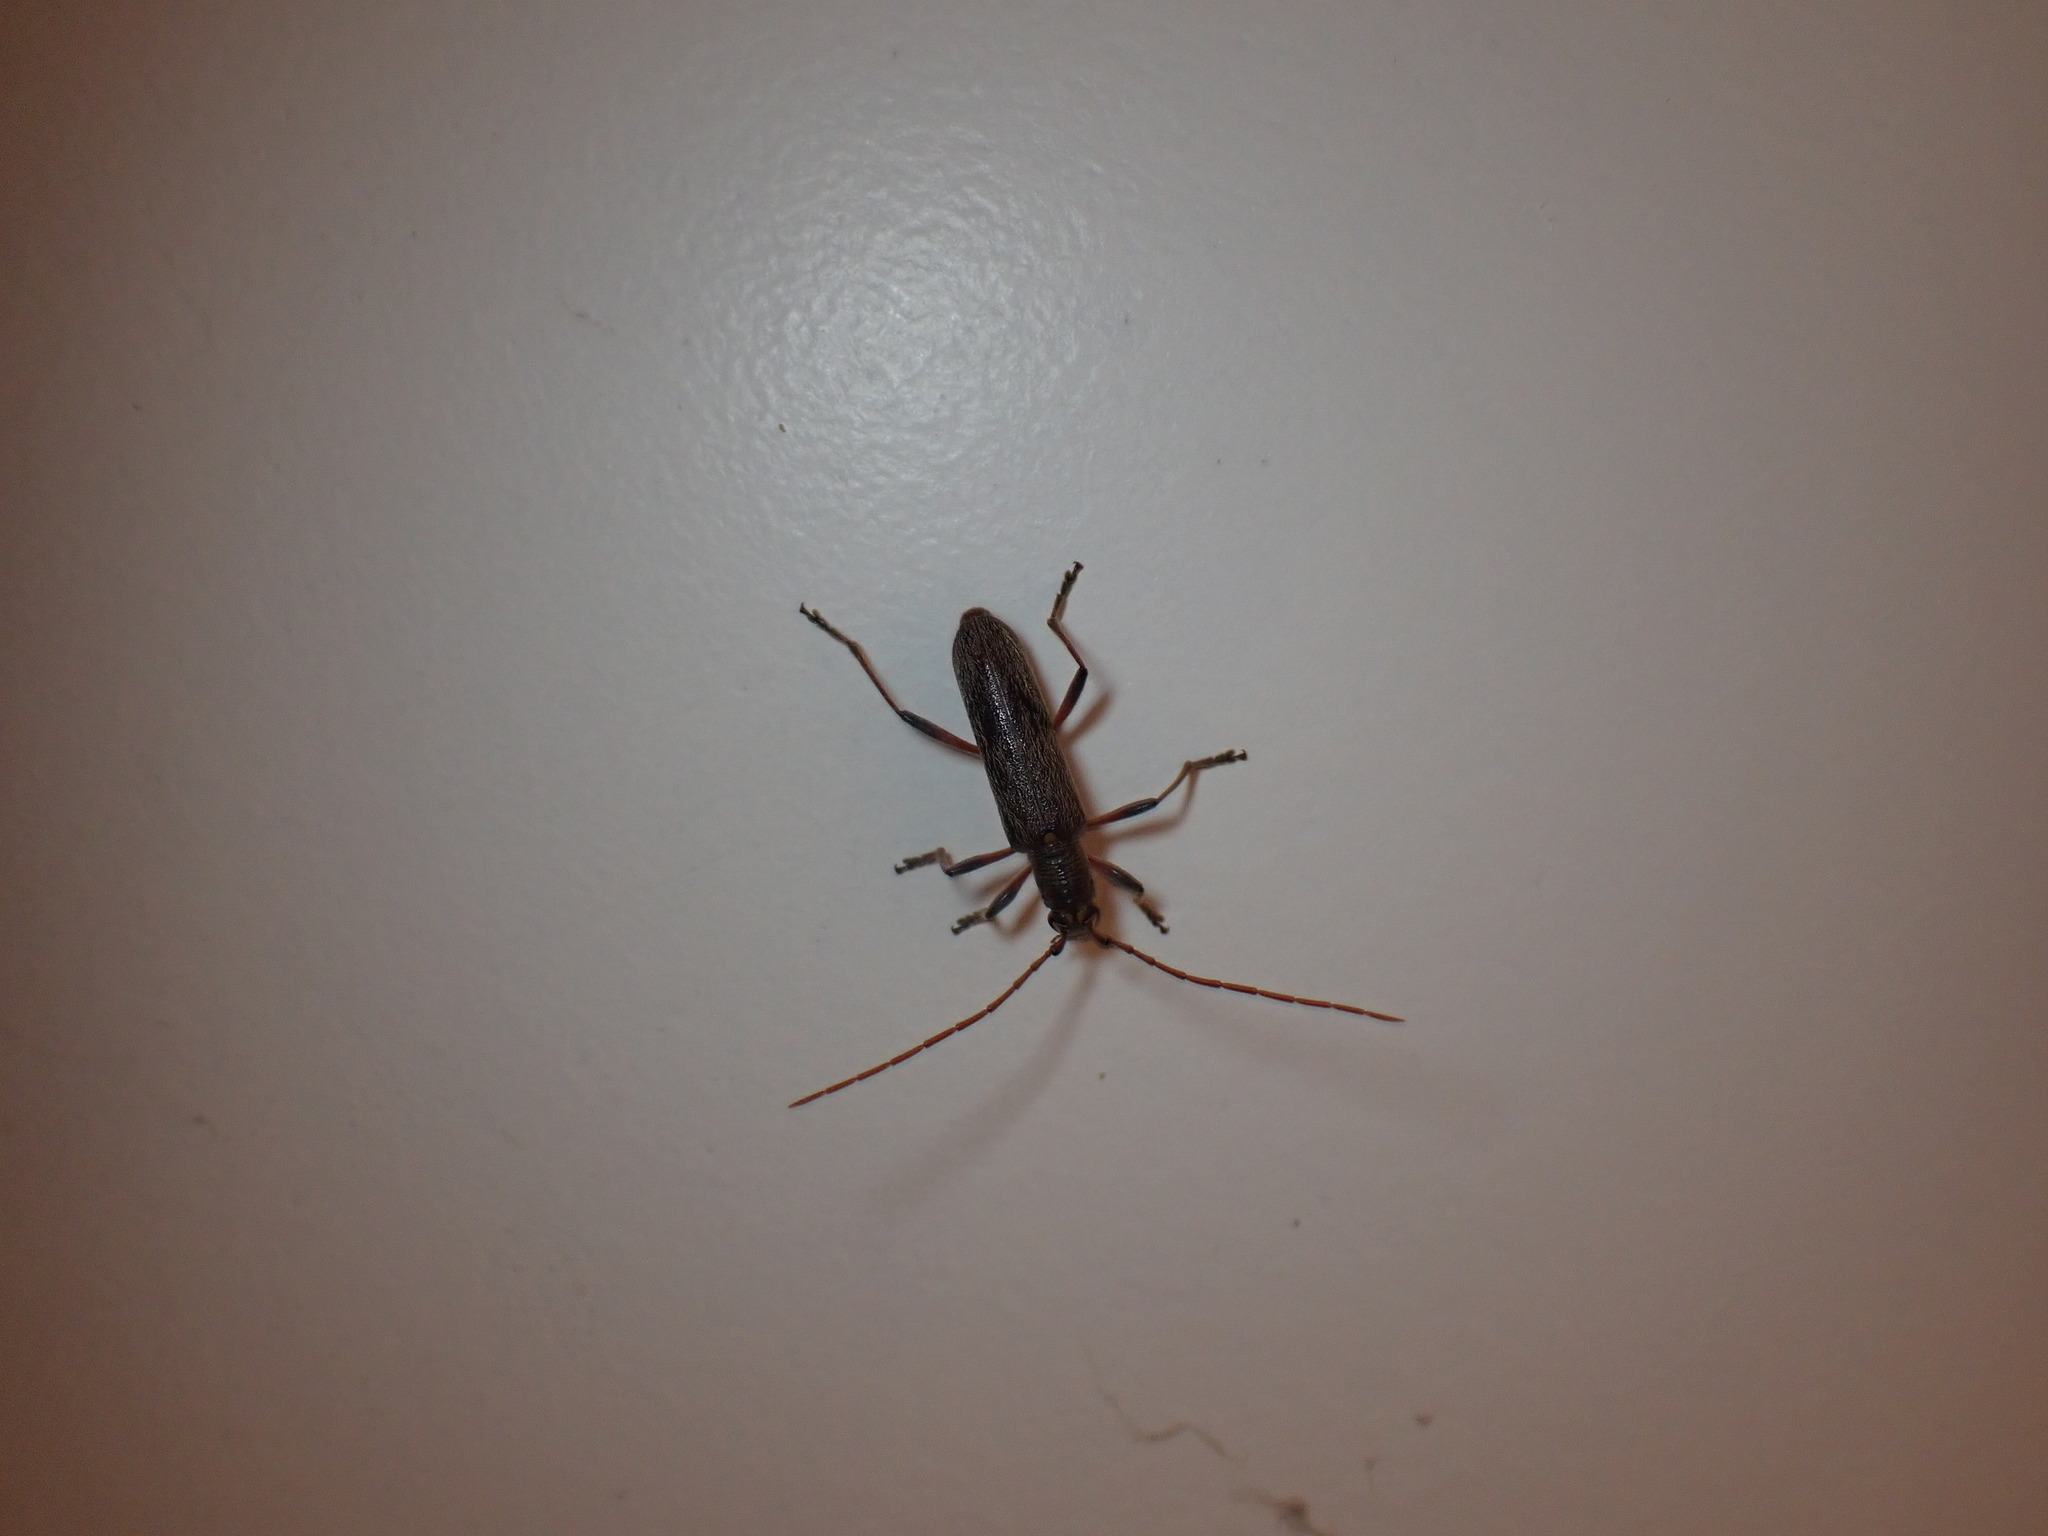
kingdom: Animalia
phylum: Arthropoda
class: Insecta
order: Coleoptera
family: Cerambycidae
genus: Oemona
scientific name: Oemona hirta
